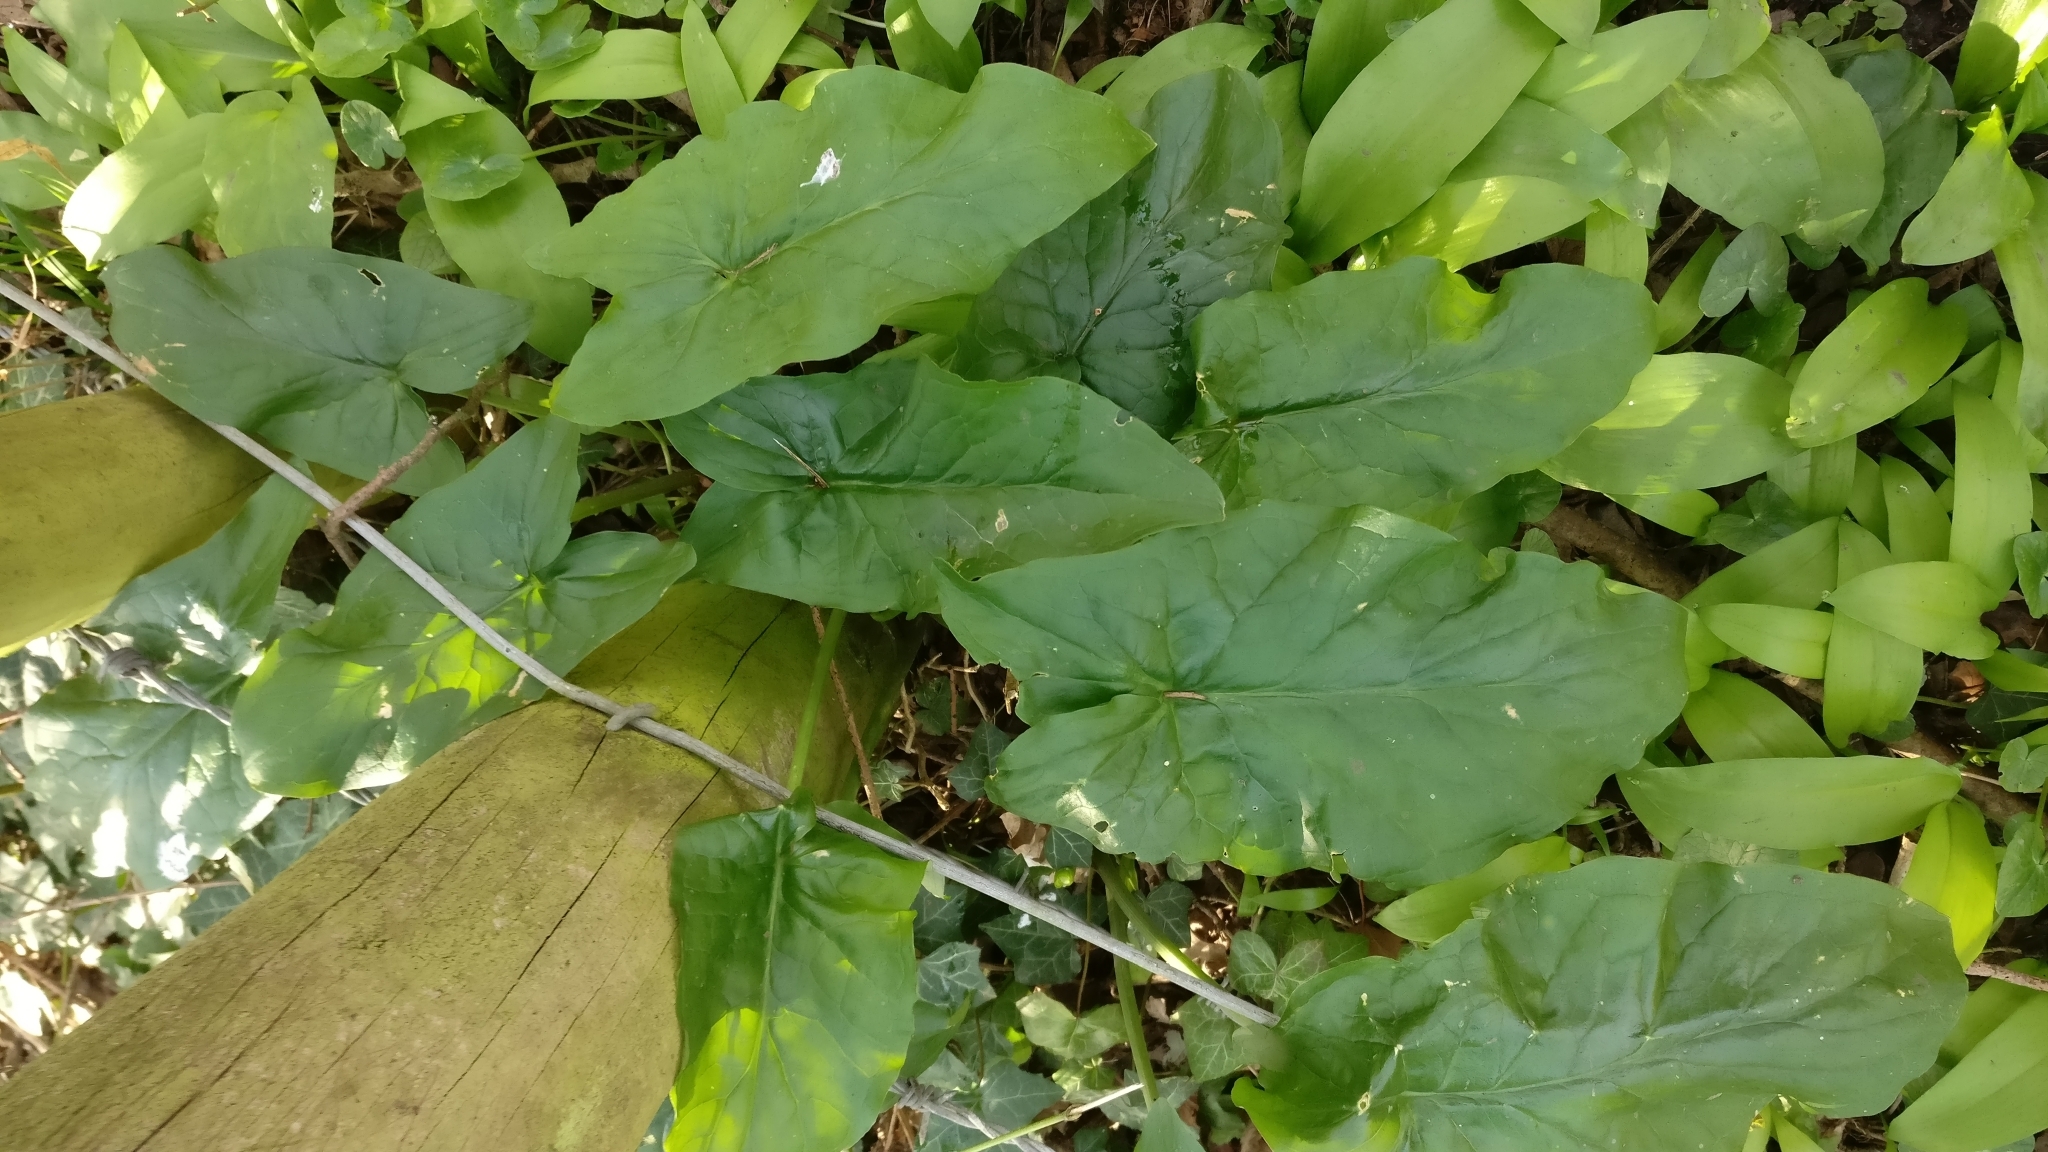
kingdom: Plantae
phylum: Tracheophyta
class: Liliopsida
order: Alismatales
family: Araceae
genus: Arum
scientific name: Arum maculatum
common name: Lords-and-ladies
